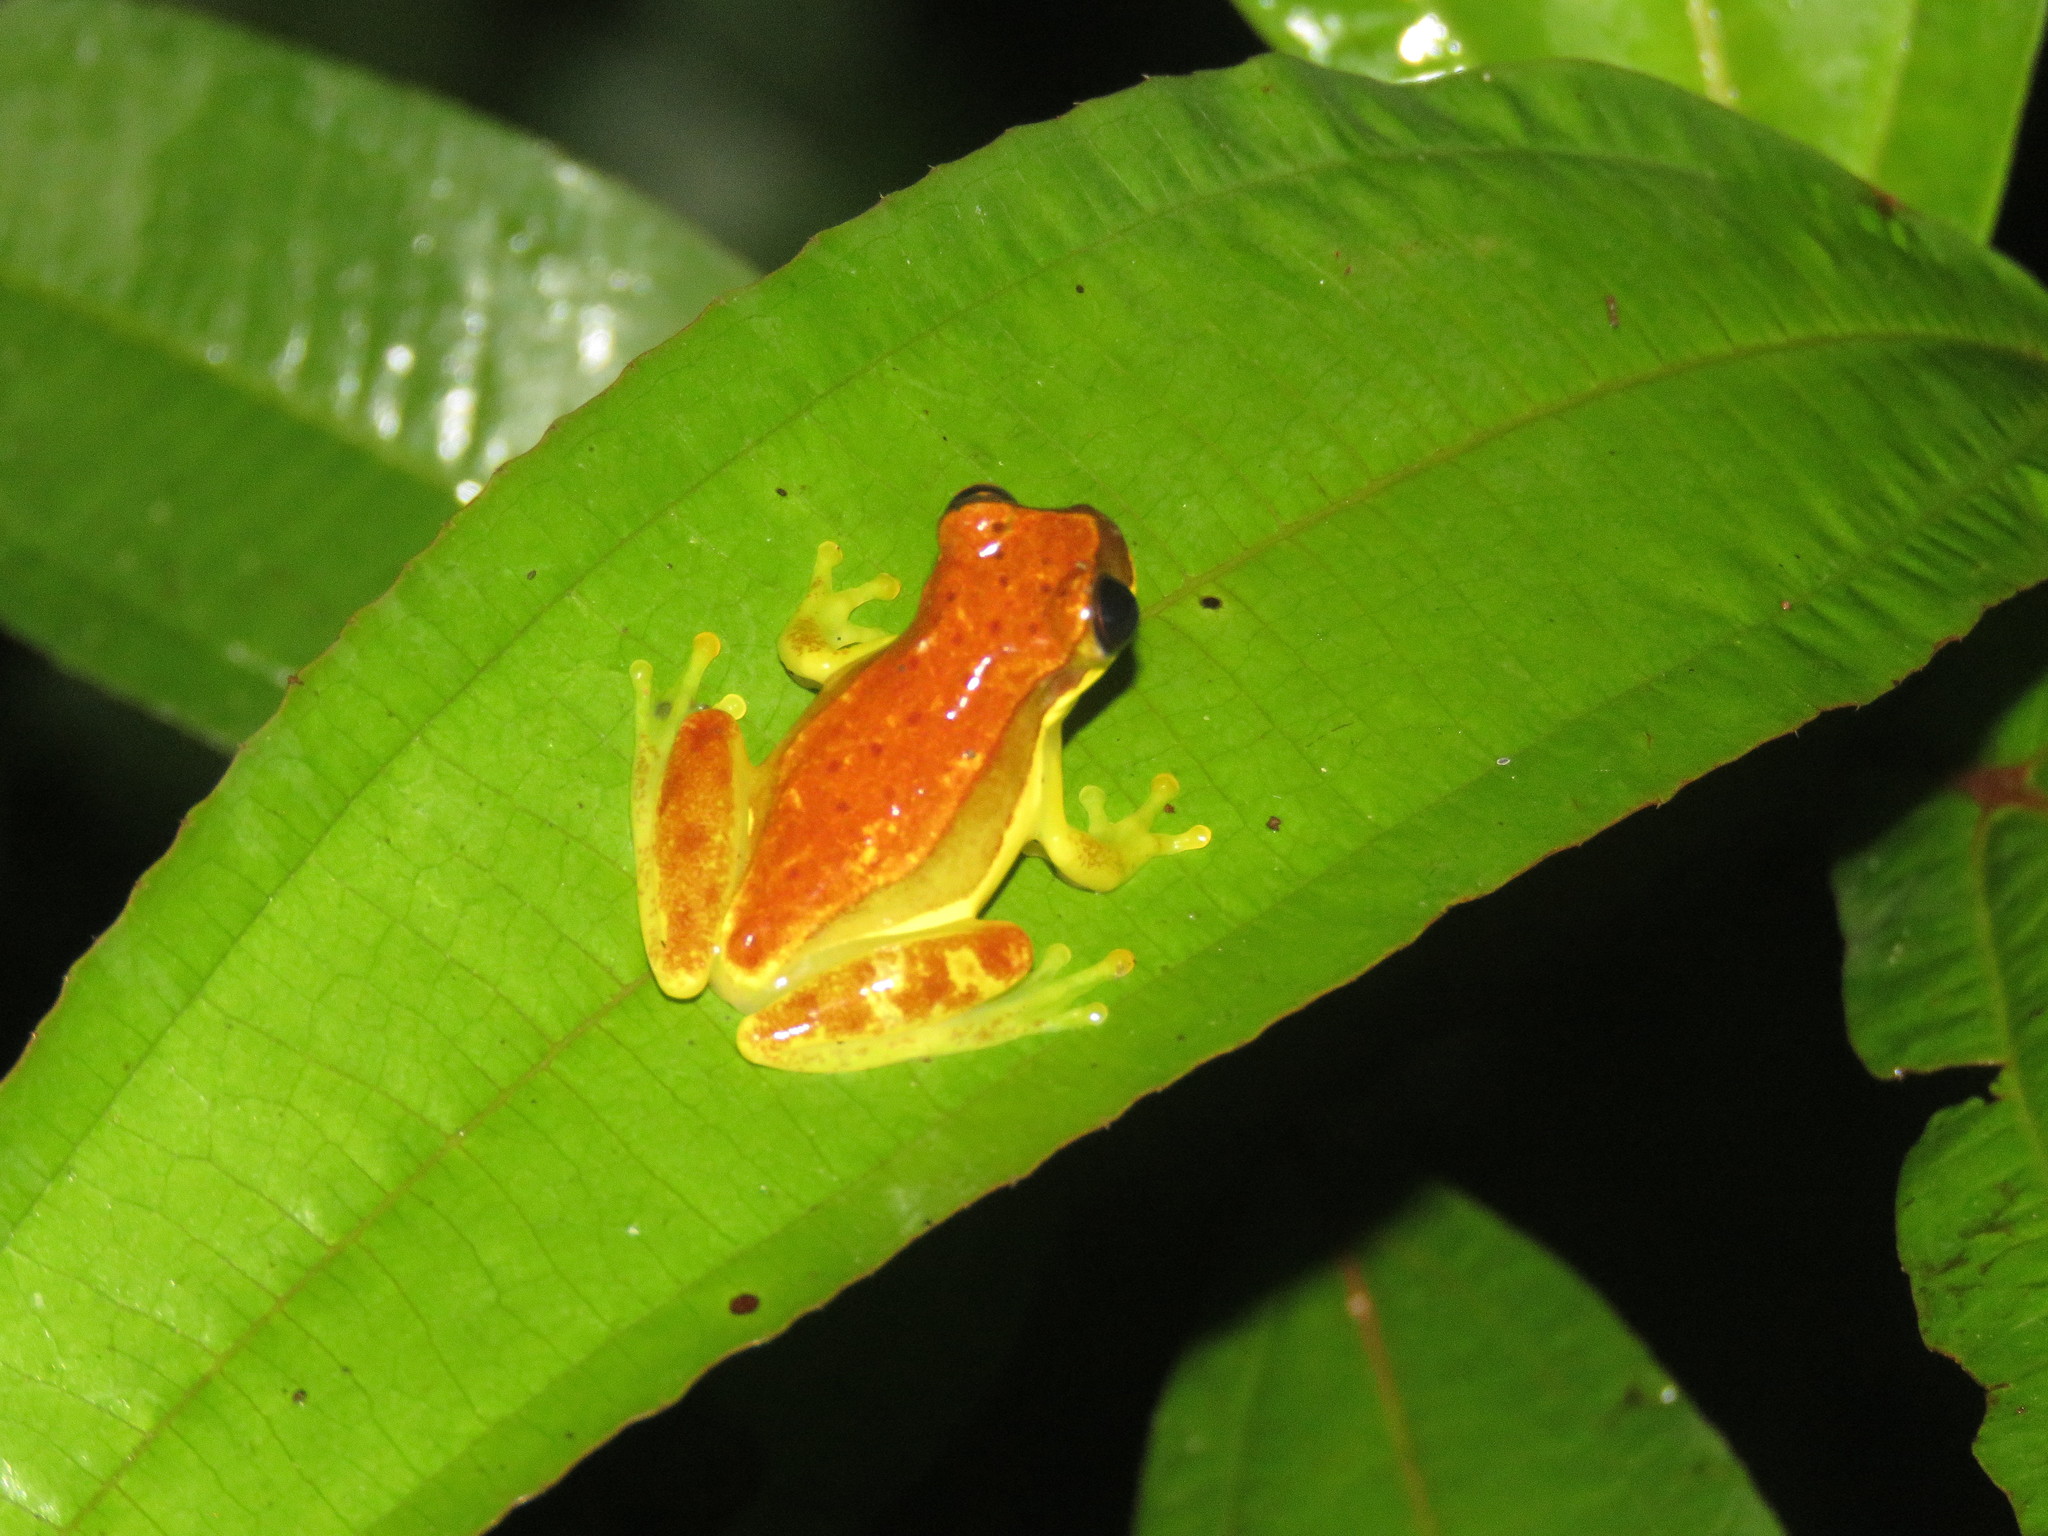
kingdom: Animalia
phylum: Chordata
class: Amphibia
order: Anura
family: Hylidae
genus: Dendropsophus
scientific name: Dendropsophus rhodopeplus
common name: Red-skirted treefrog
